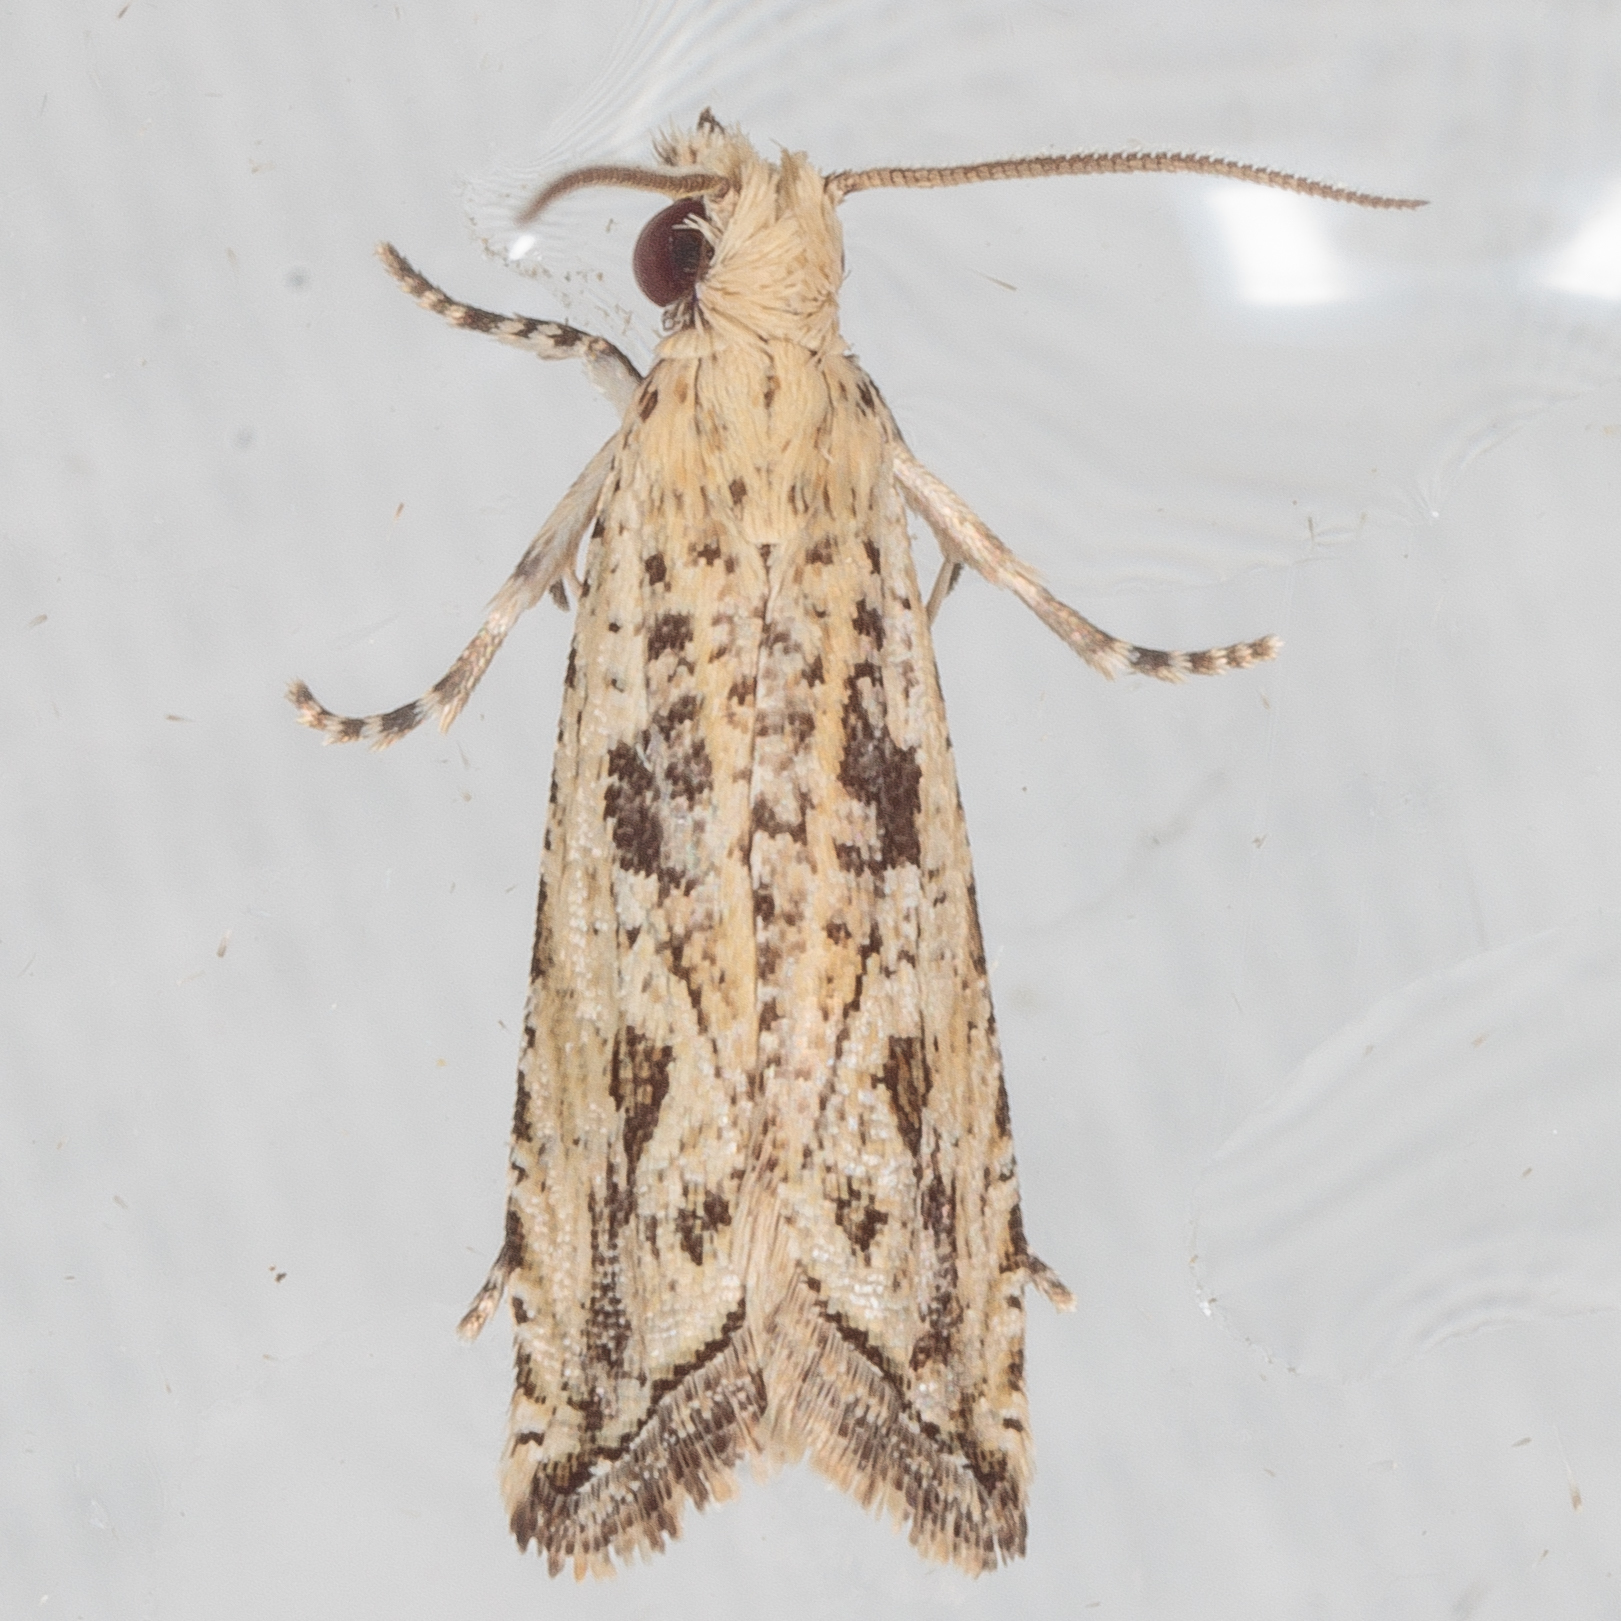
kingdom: Animalia
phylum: Arthropoda
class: Insecta
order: Lepidoptera
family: Tortricidae
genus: Bactra
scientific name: Bactra verutana
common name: Javelin moth
